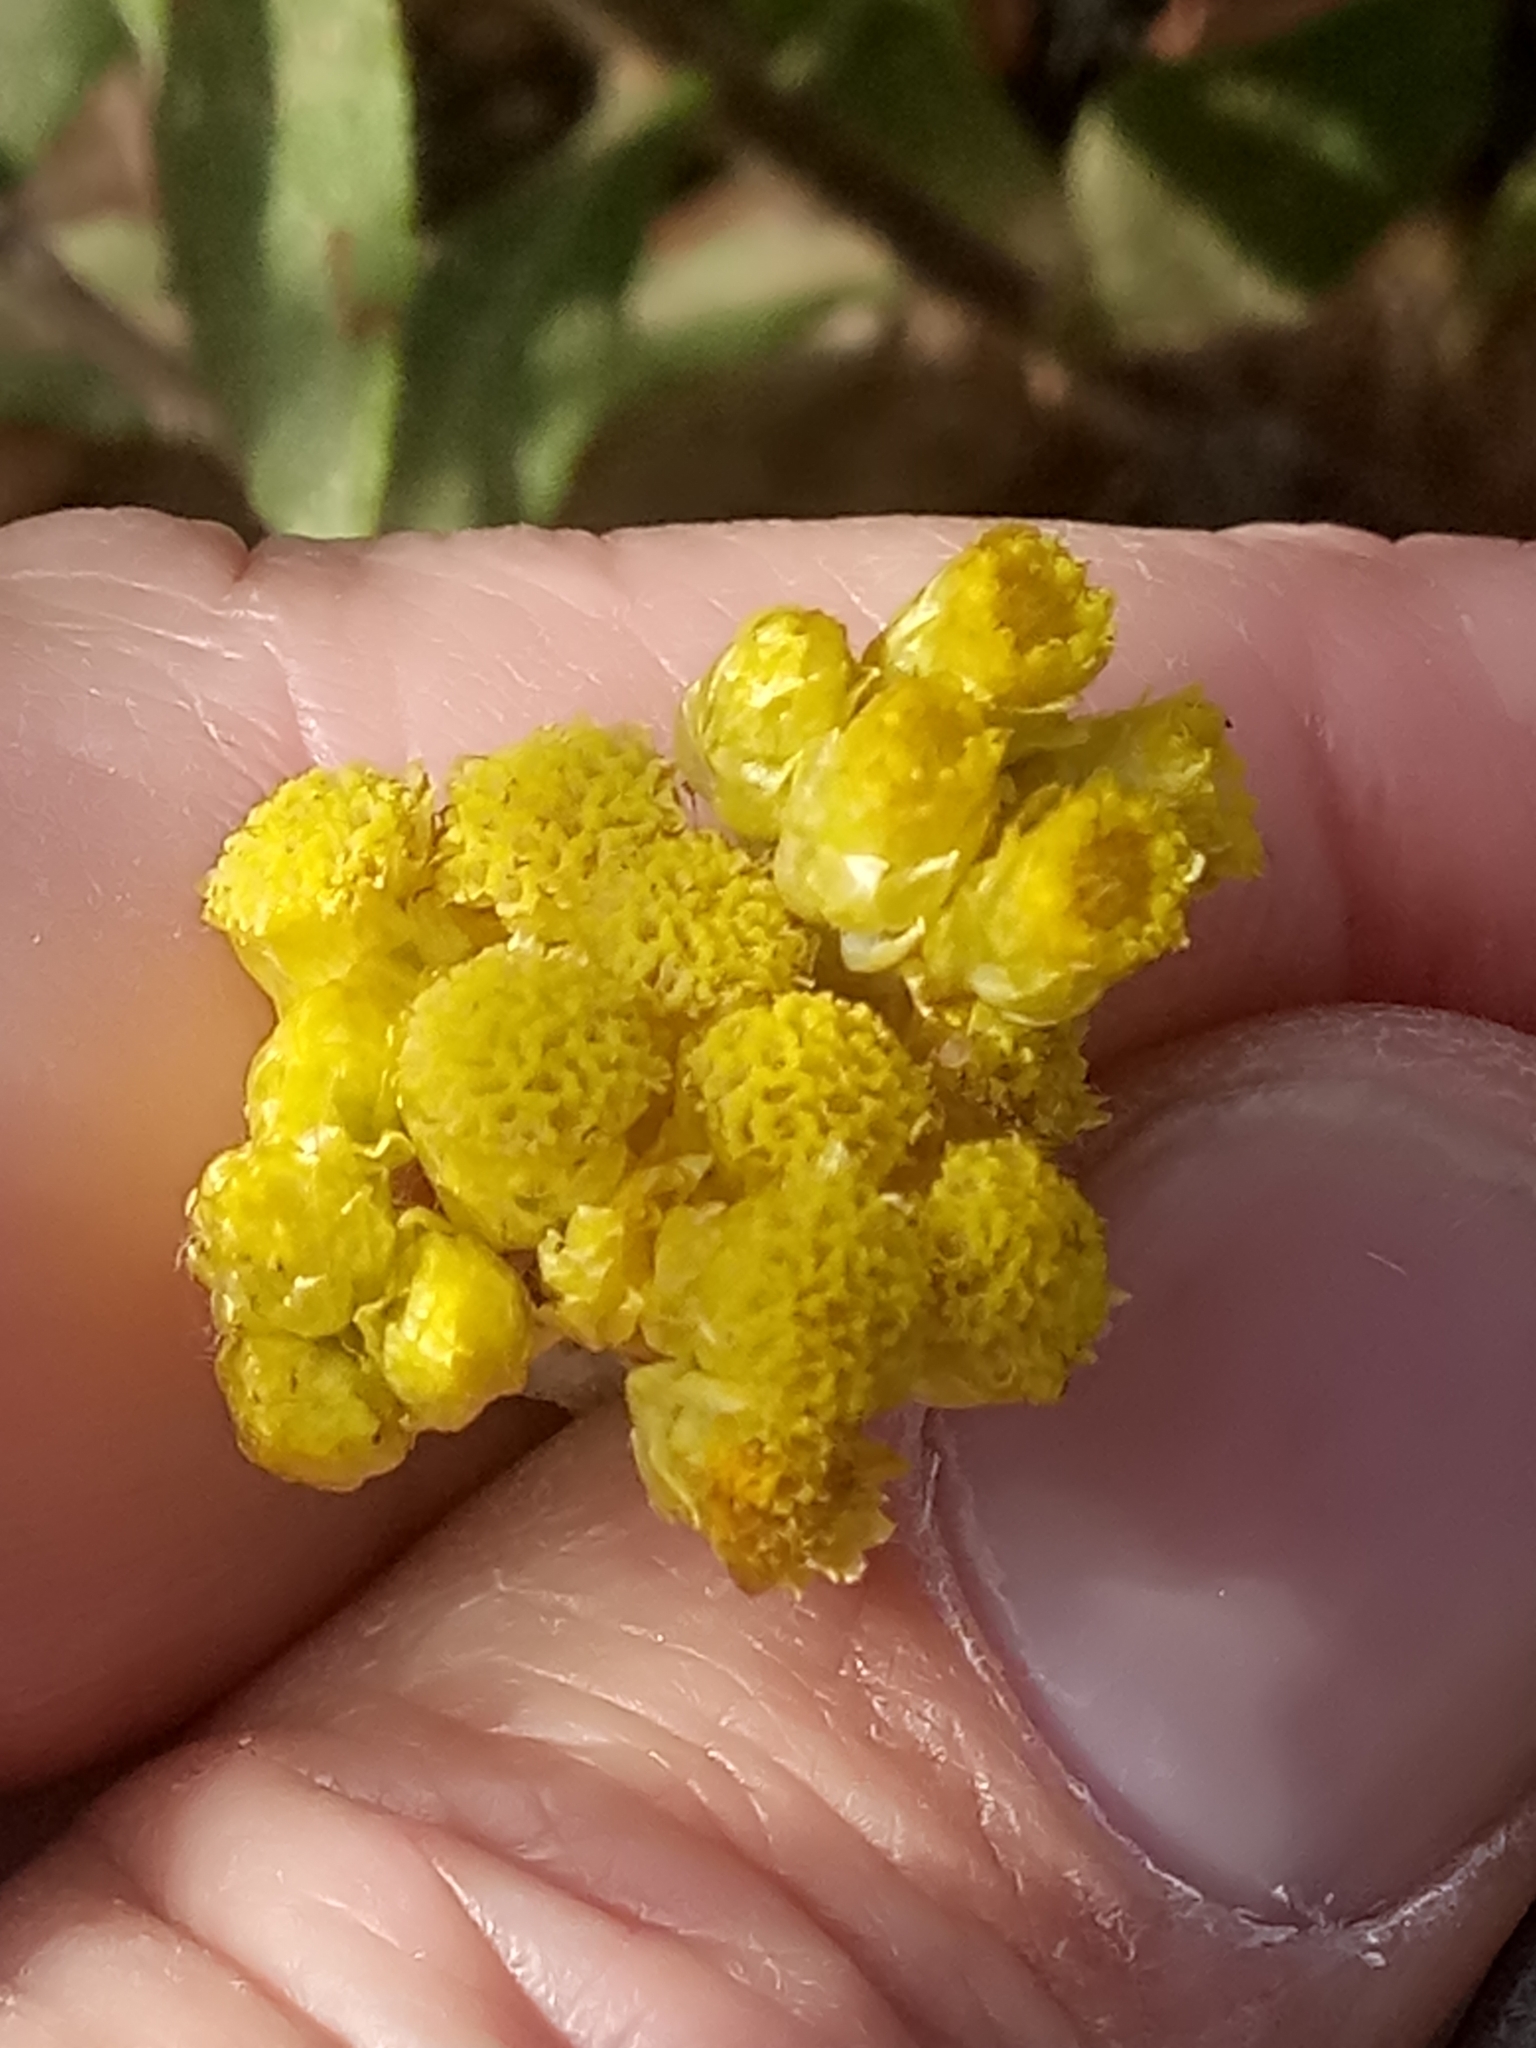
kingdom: Plantae
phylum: Tracheophyta
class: Magnoliopsida
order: Asterales
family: Asteraceae
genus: Phagnalon
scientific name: Phagnalon saxatile
